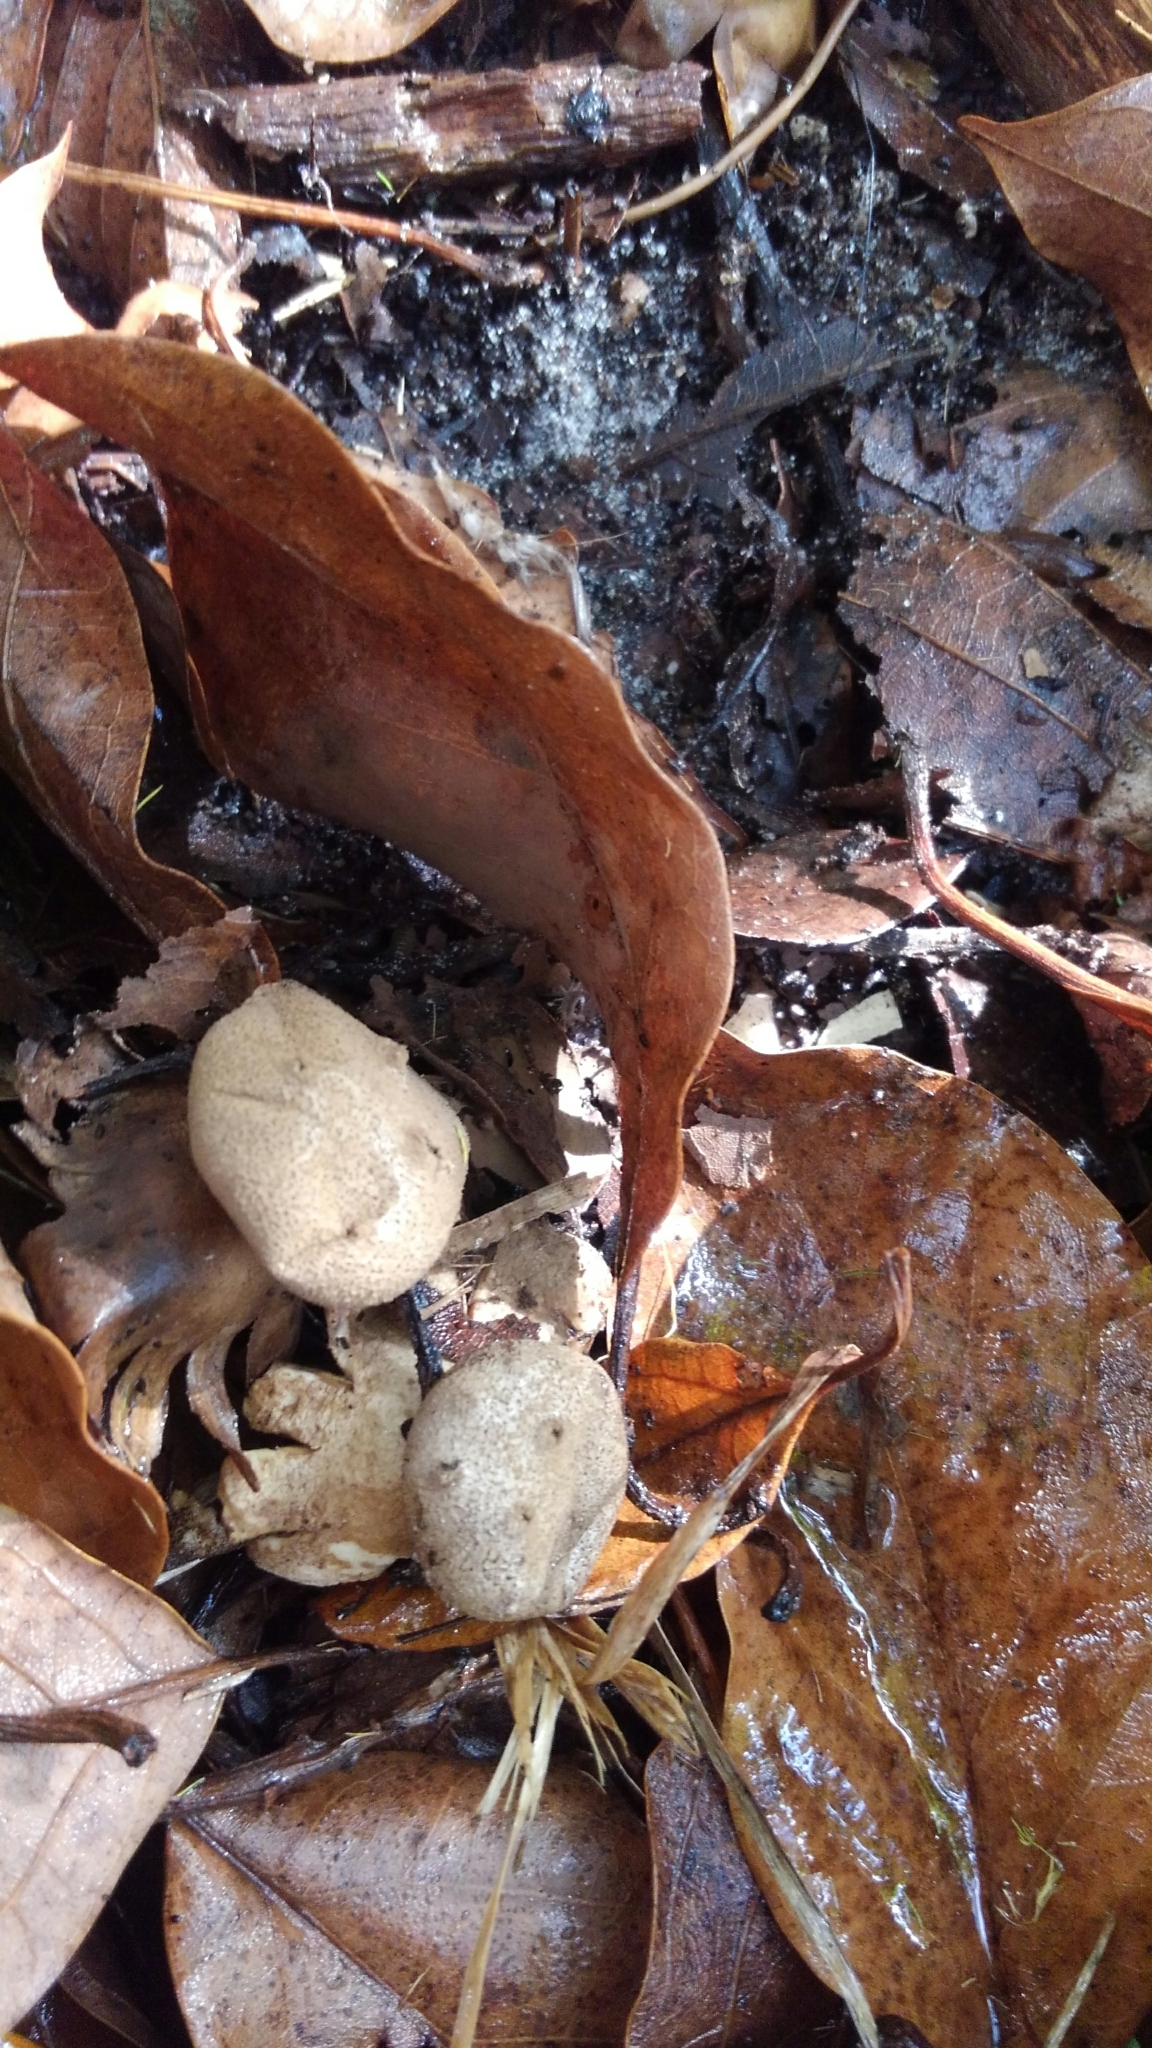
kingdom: Fungi
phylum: Basidiomycota
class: Agaricomycetes
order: Geastrales
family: Geastraceae
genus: Myriostoma
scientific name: Myriostoma coliforme
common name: Pepper pot
